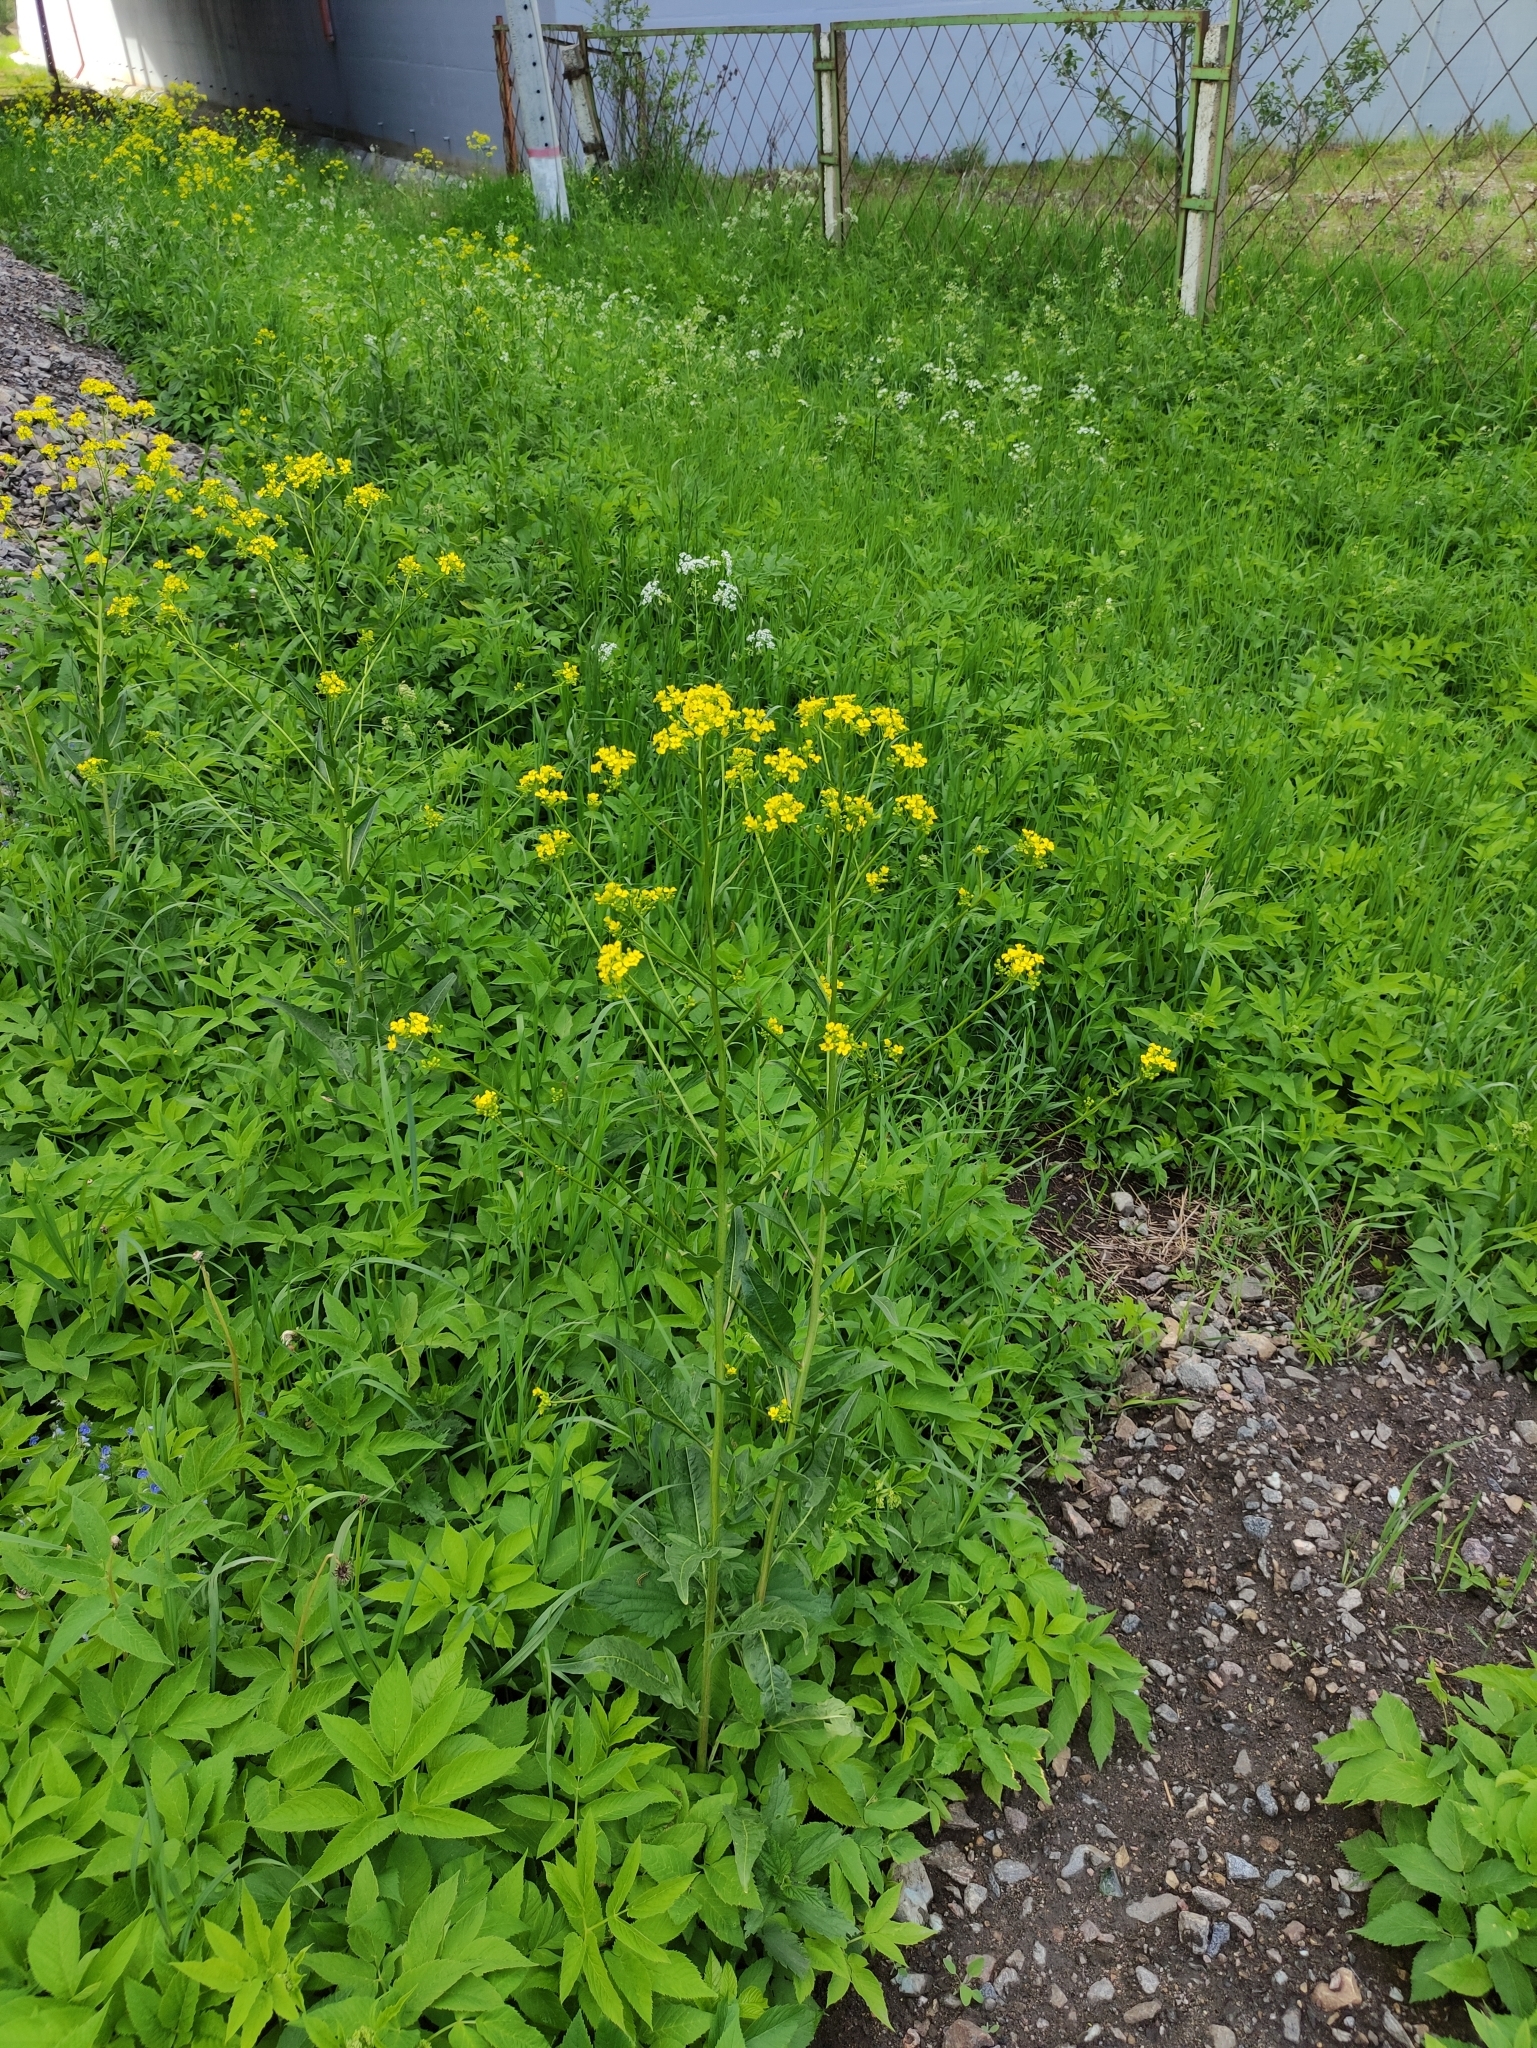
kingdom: Plantae
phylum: Tracheophyta
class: Magnoliopsida
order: Brassicales
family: Brassicaceae
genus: Bunias
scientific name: Bunias orientalis
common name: Warty-cabbage
